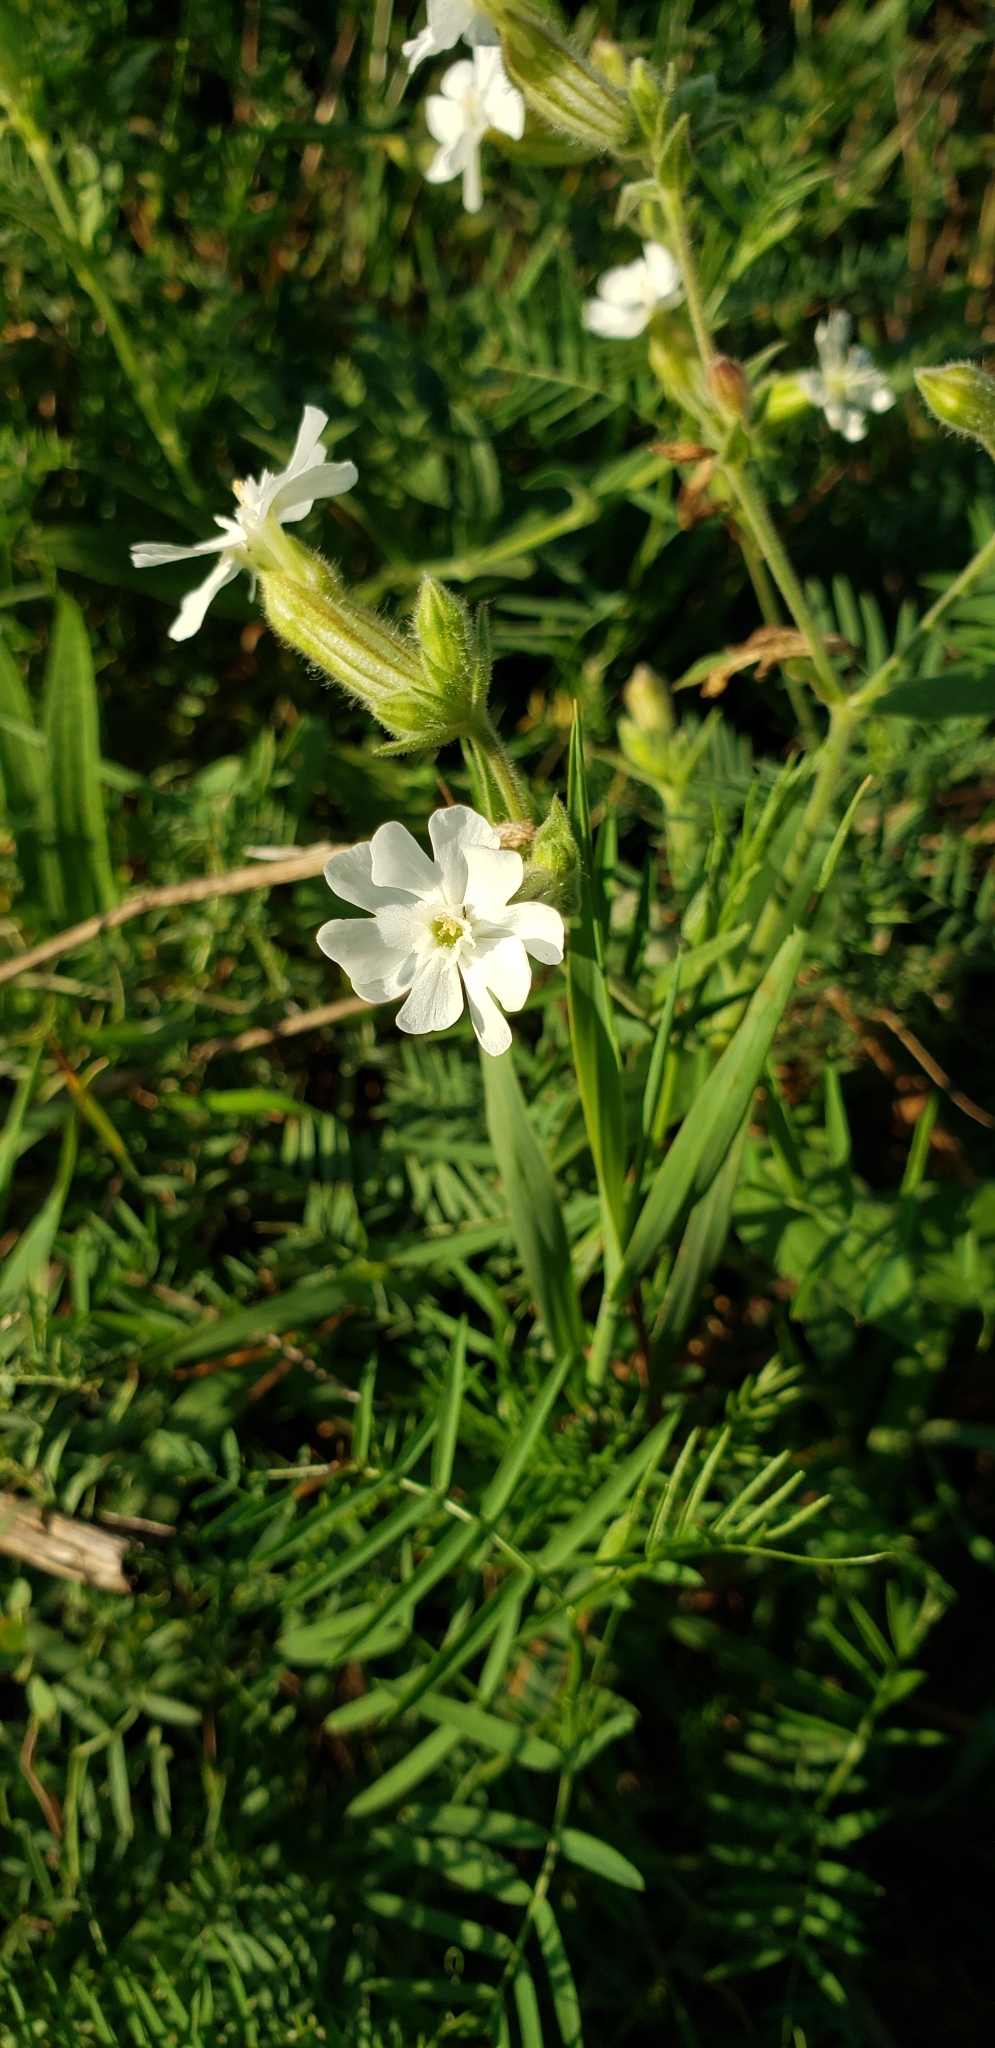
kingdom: Plantae
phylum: Tracheophyta
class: Magnoliopsida
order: Caryophyllales
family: Caryophyllaceae
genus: Silene
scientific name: Silene latifolia
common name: White campion
